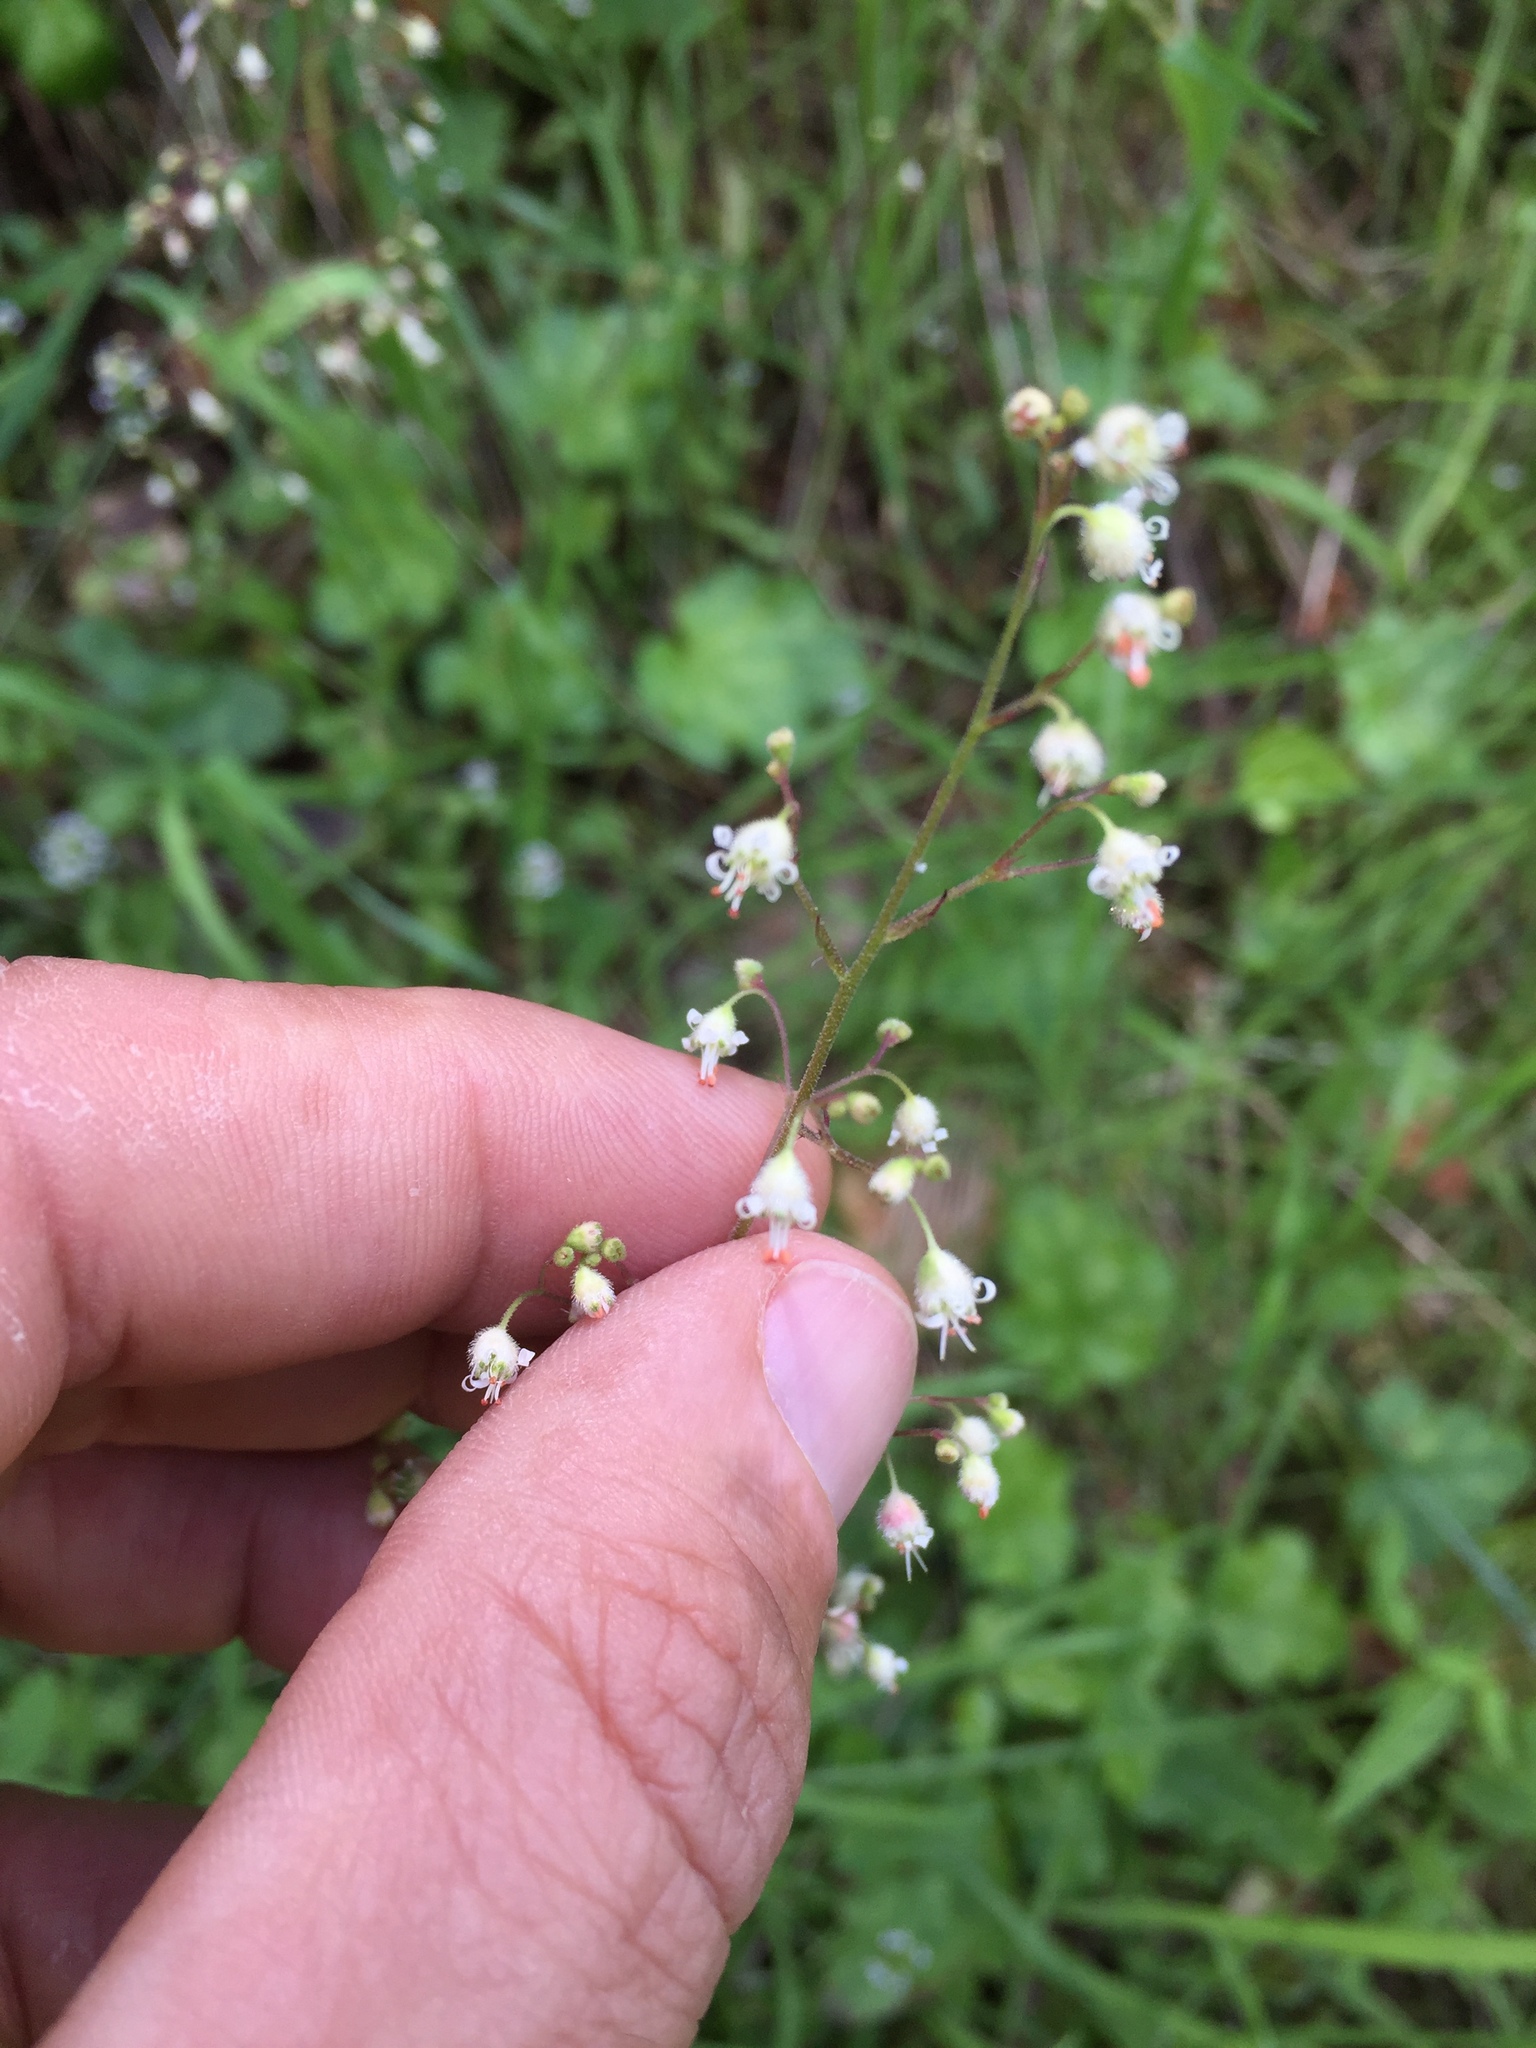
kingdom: Plantae
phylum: Tracheophyta
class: Magnoliopsida
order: Saxifragales
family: Saxifragaceae
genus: Heuchera
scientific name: Heuchera micrantha
